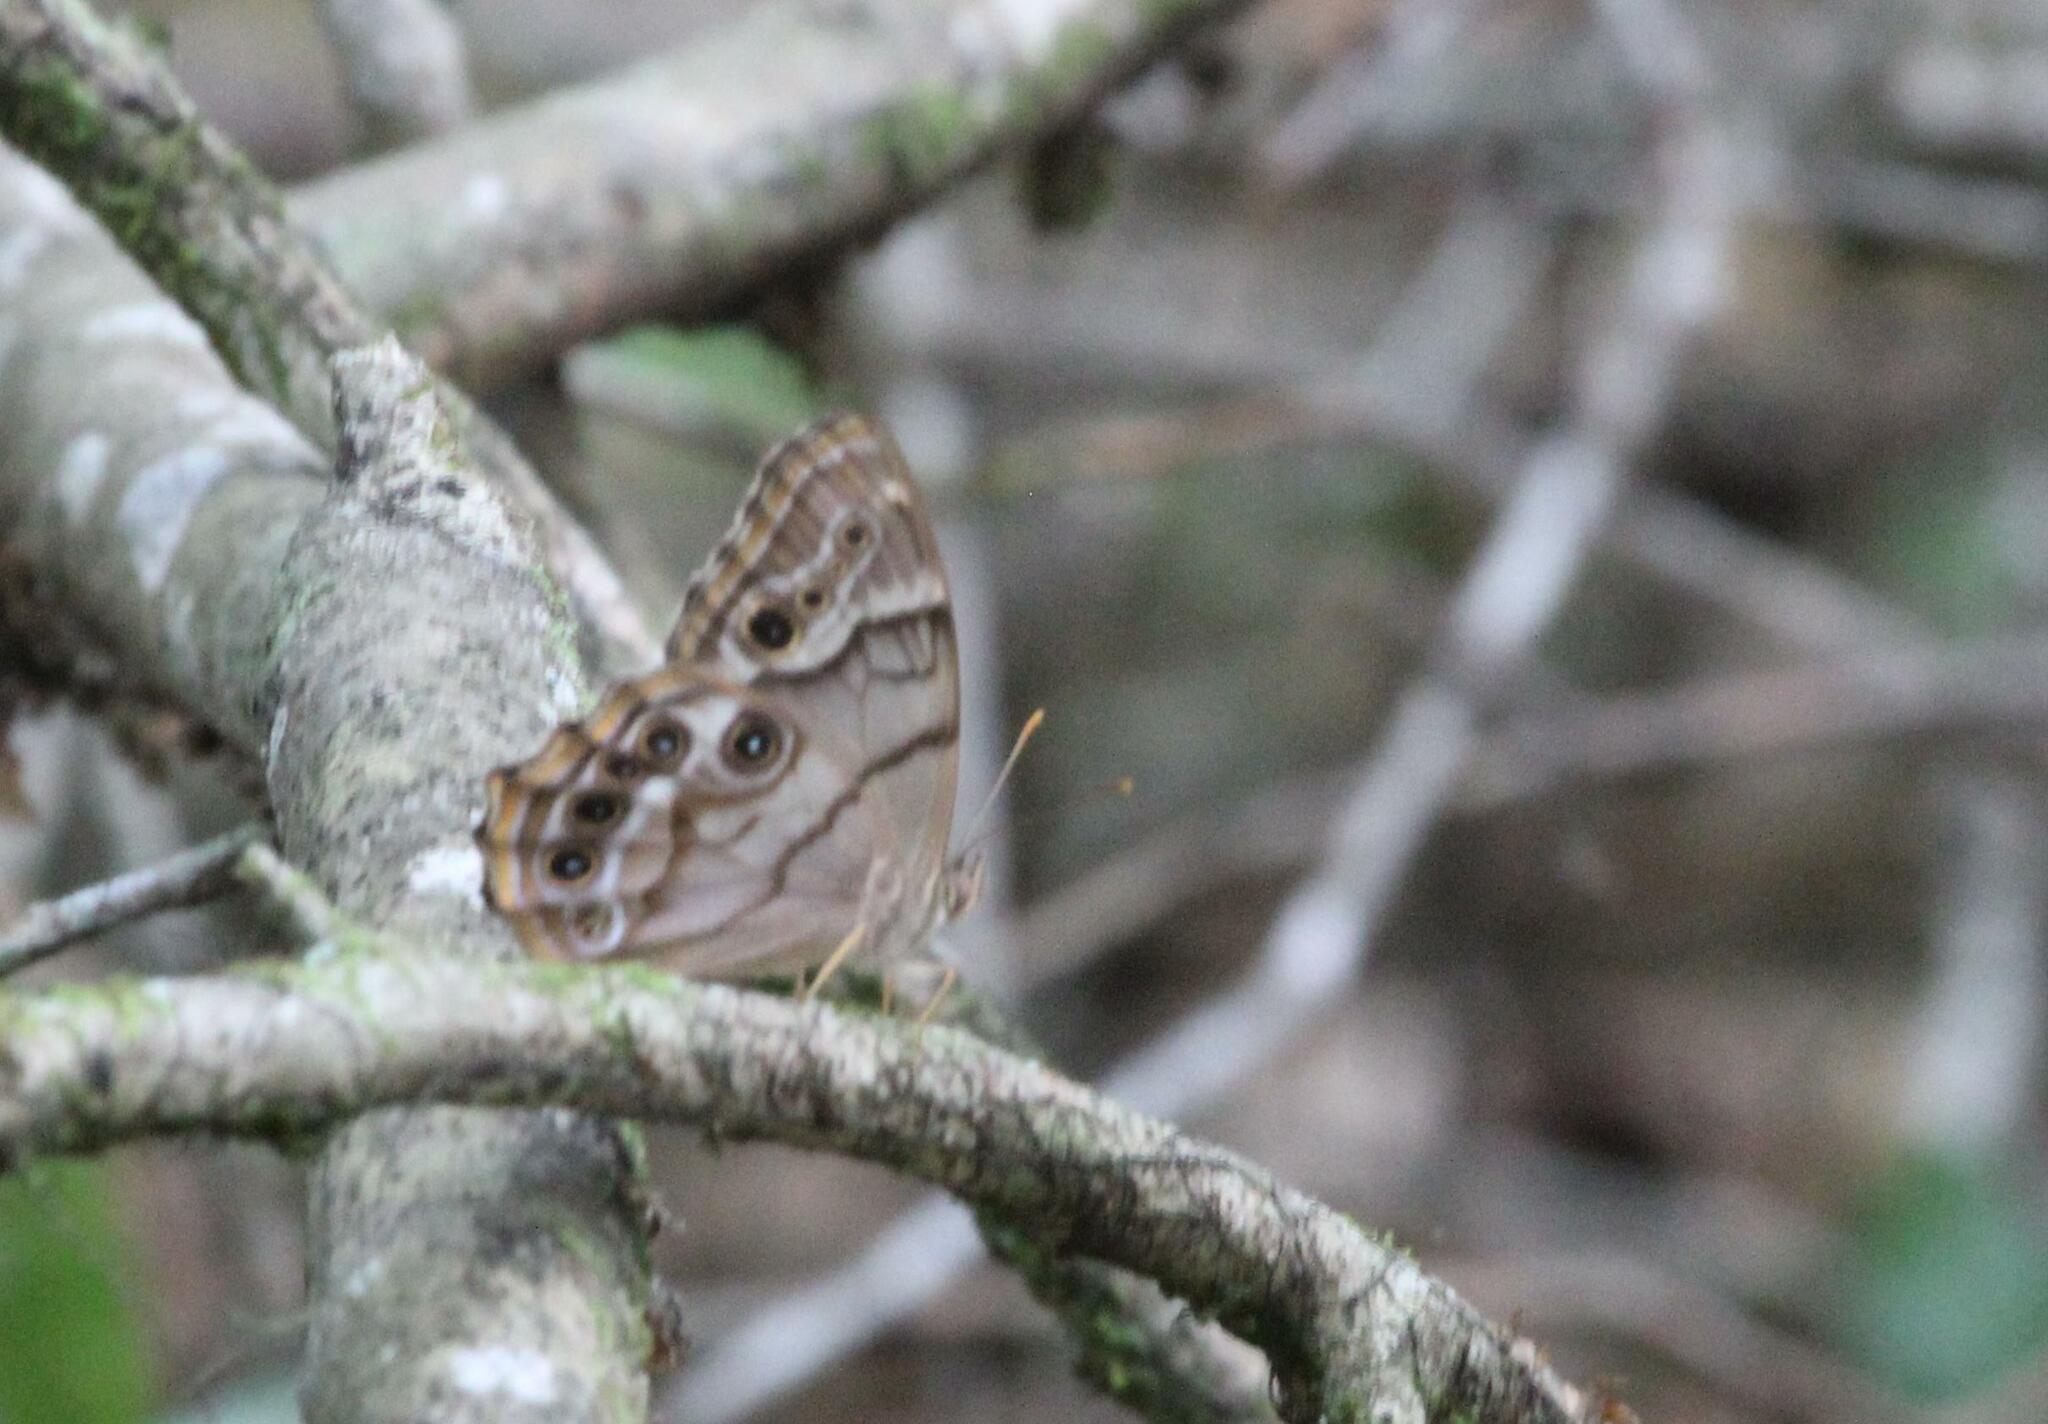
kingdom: Animalia
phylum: Arthropoda
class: Insecta
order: Lepidoptera
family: Nymphalidae
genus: Enodia
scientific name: Enodia portlandia
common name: Southern pearly-eye
